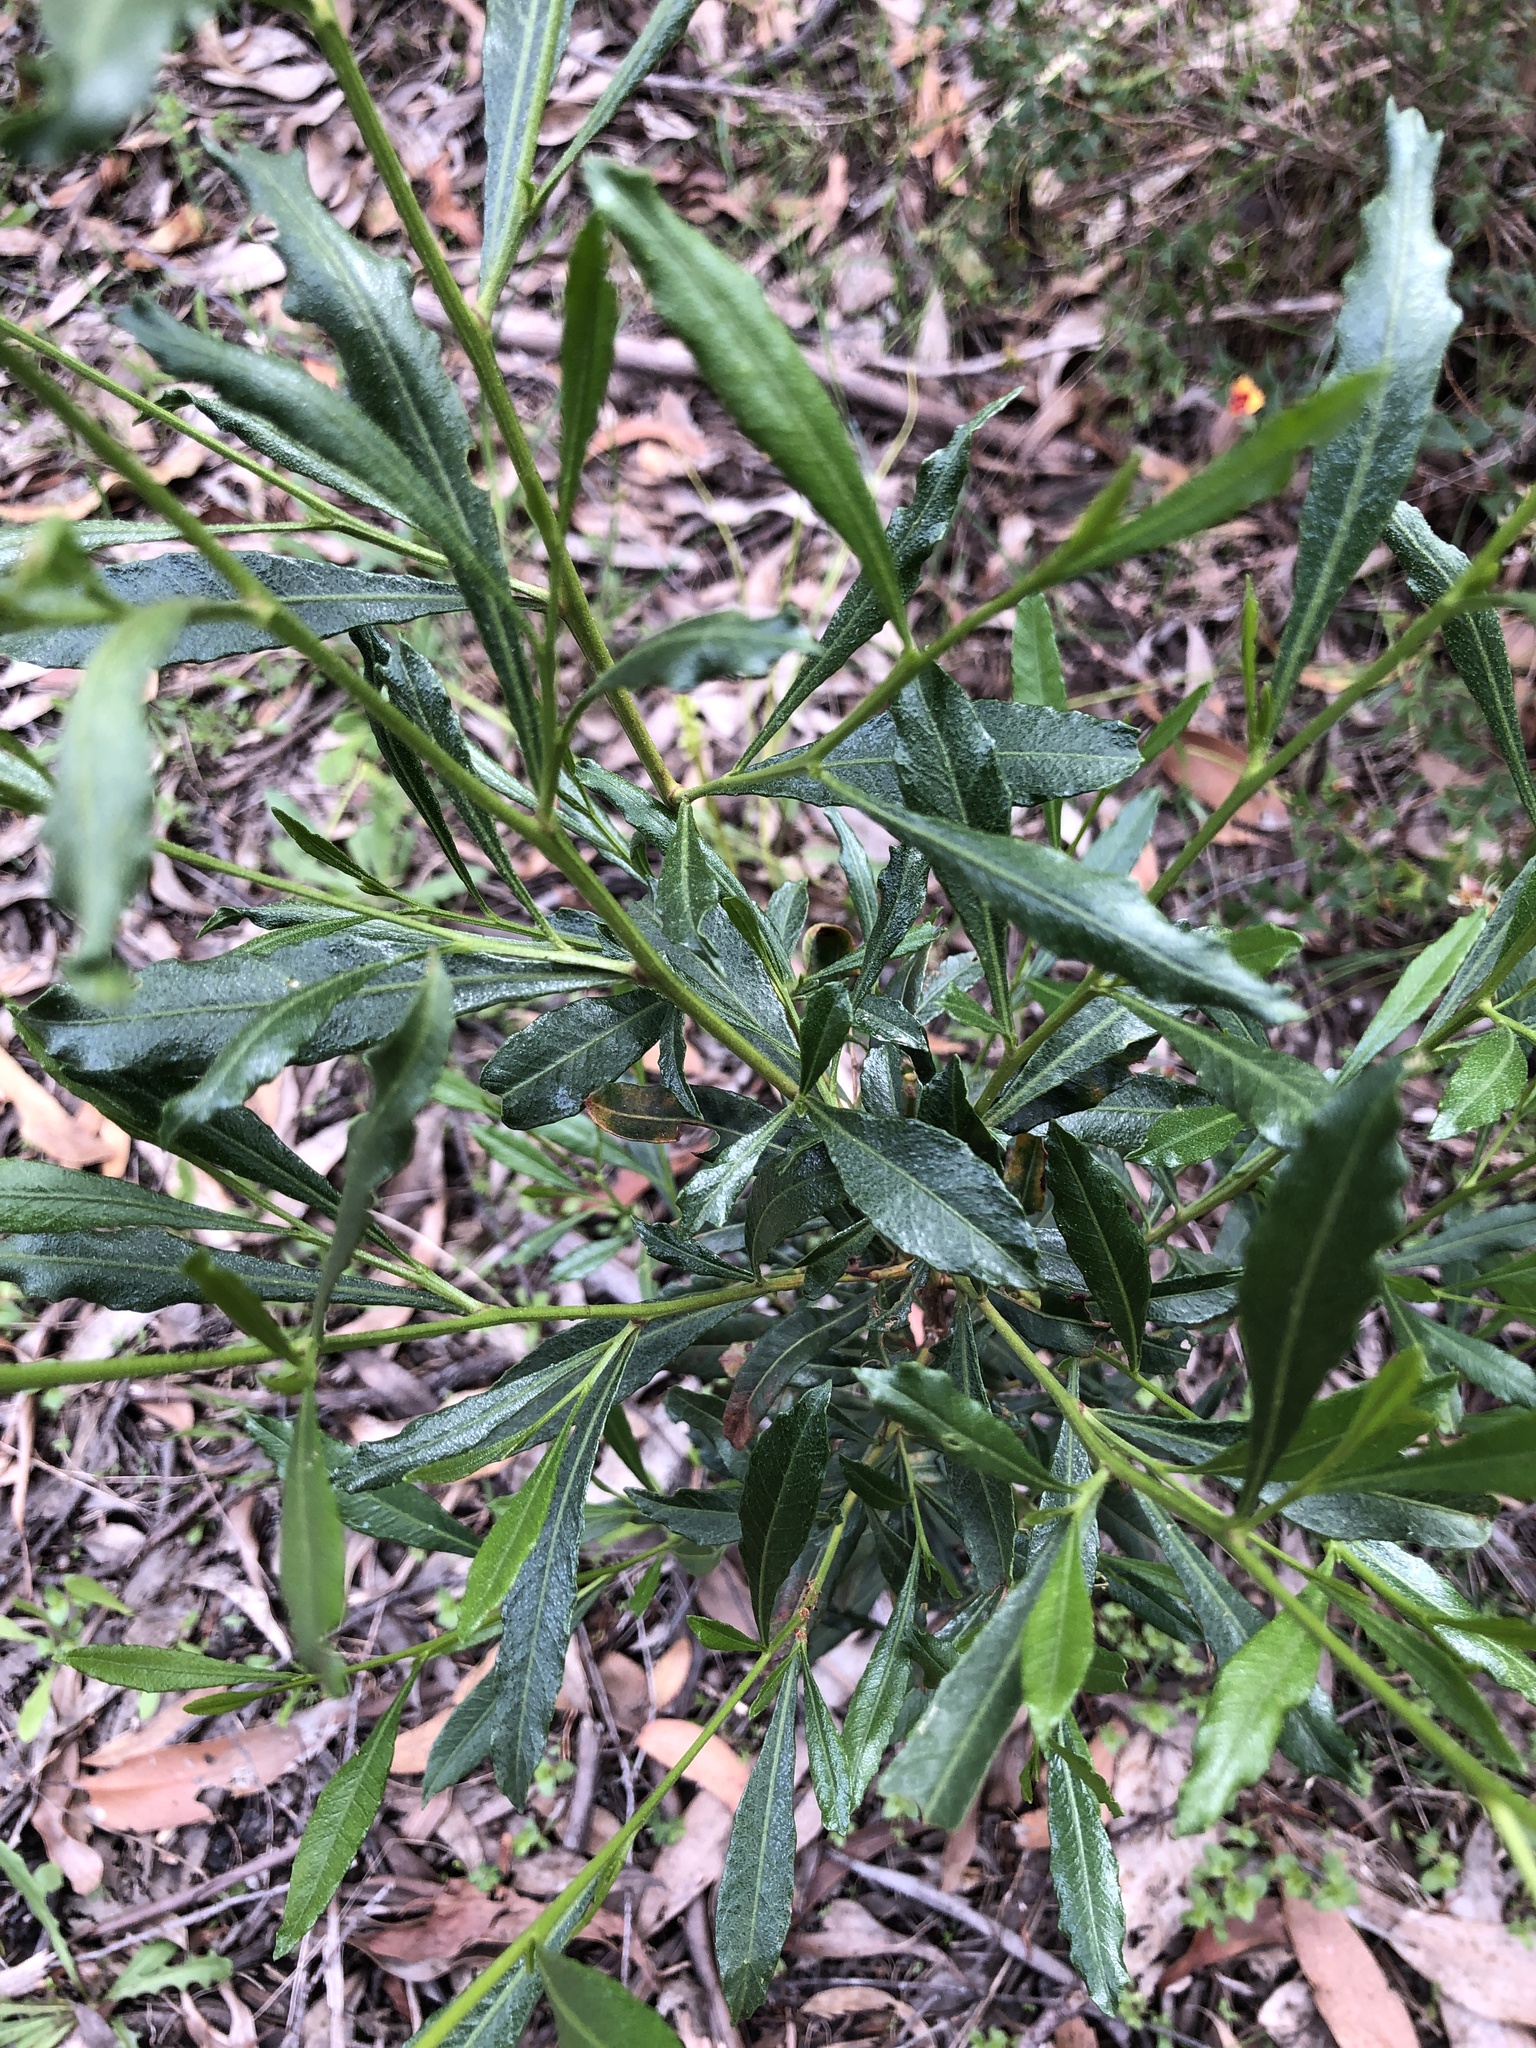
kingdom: Plantae
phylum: Tracheophyta
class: Magnoliopsida
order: Sapindales
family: Sapindaceae
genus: Dodonaea
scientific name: Dodonaea viscosa
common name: Hopbush
